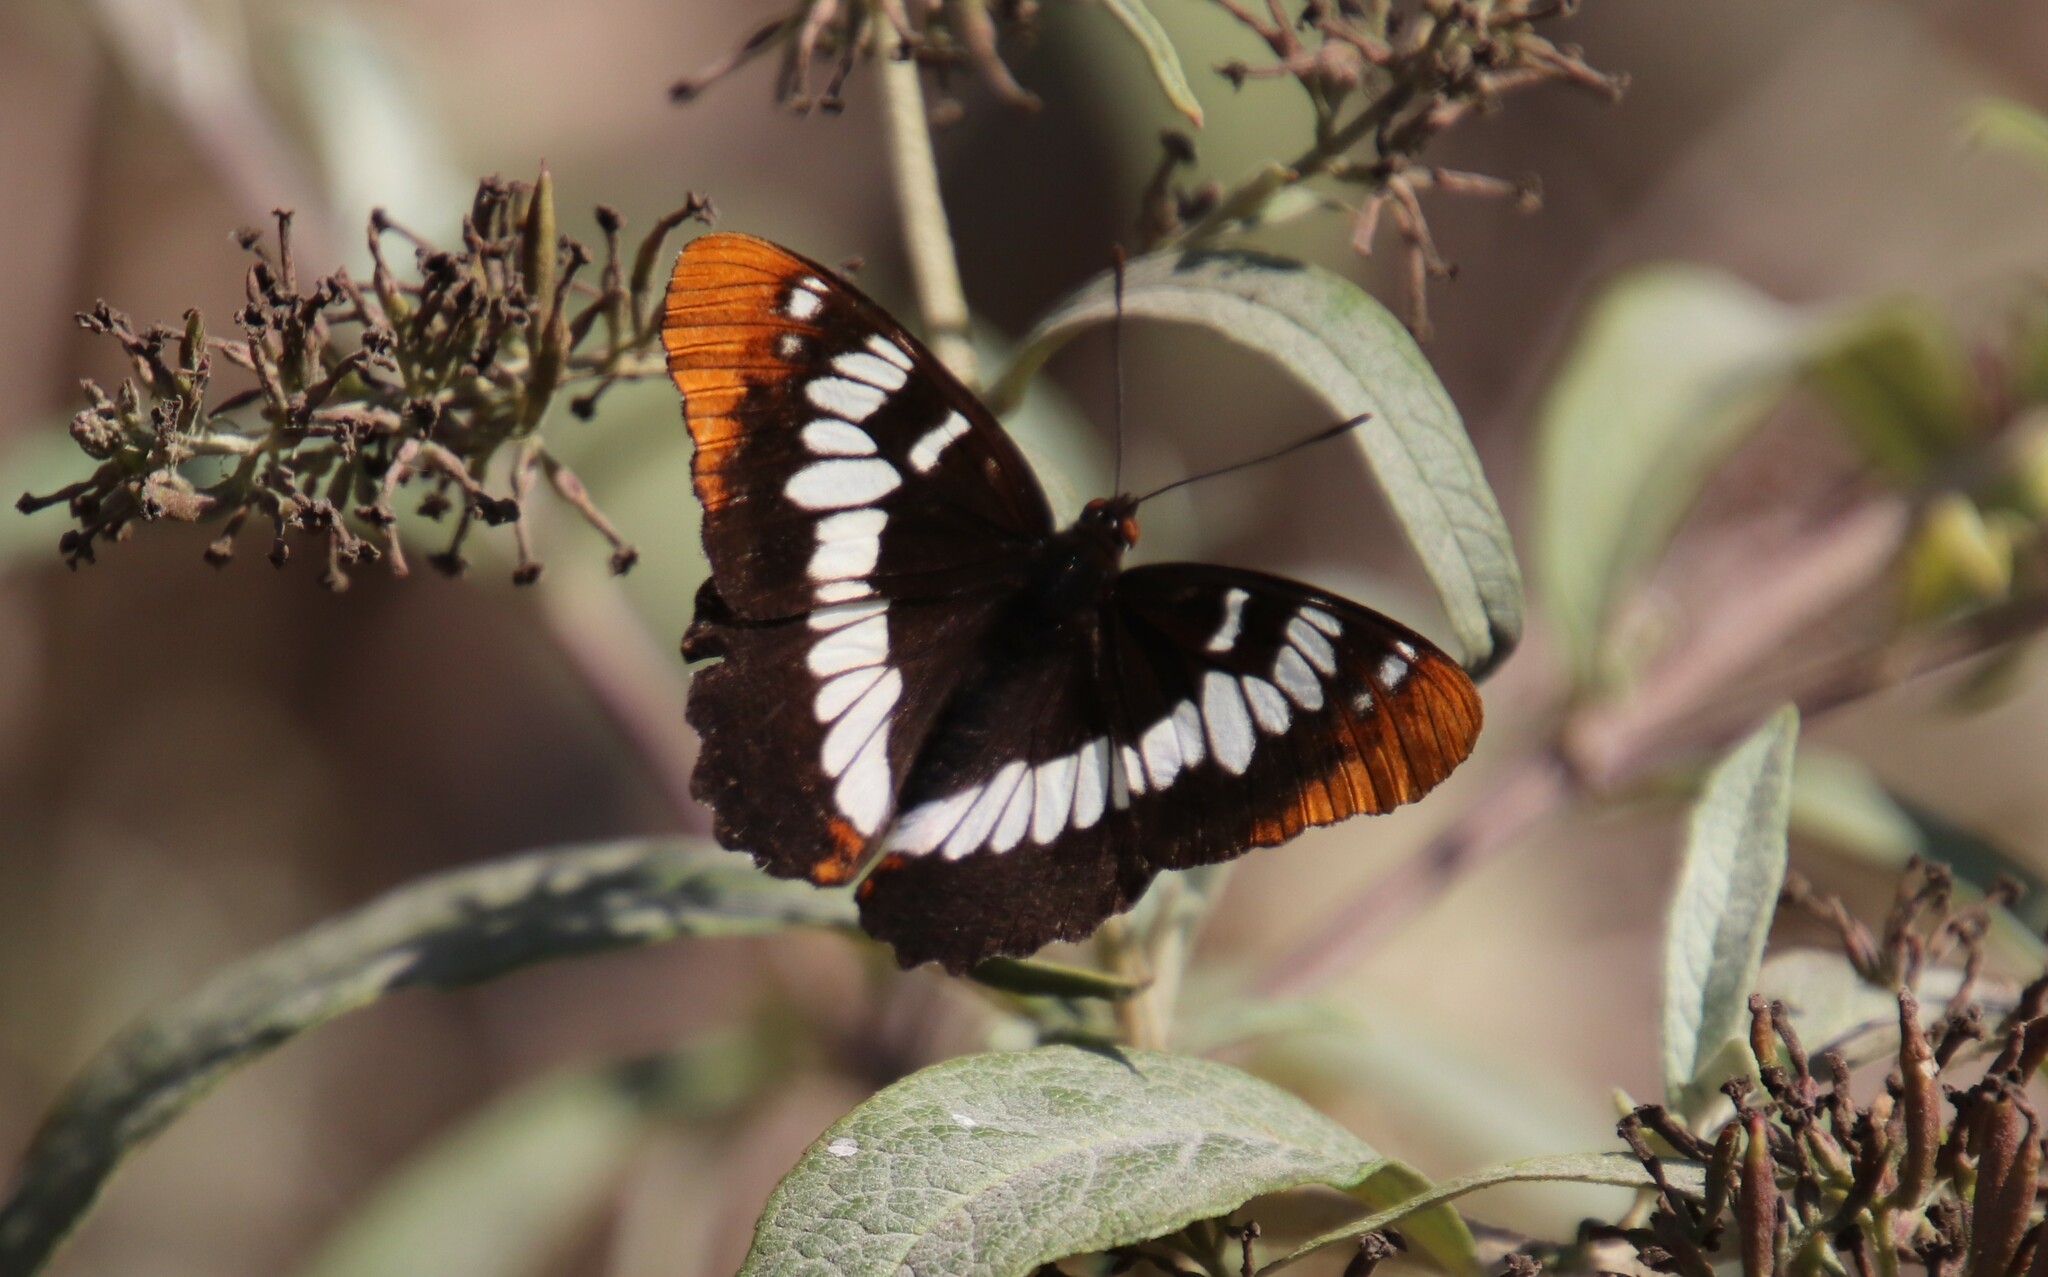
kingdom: Animalia
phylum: Arthropoda
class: Insecta
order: Lepidoptera
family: Nymphalidae
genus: Limenitis
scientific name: Limenitis lorquini
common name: Lorquin's admiral
